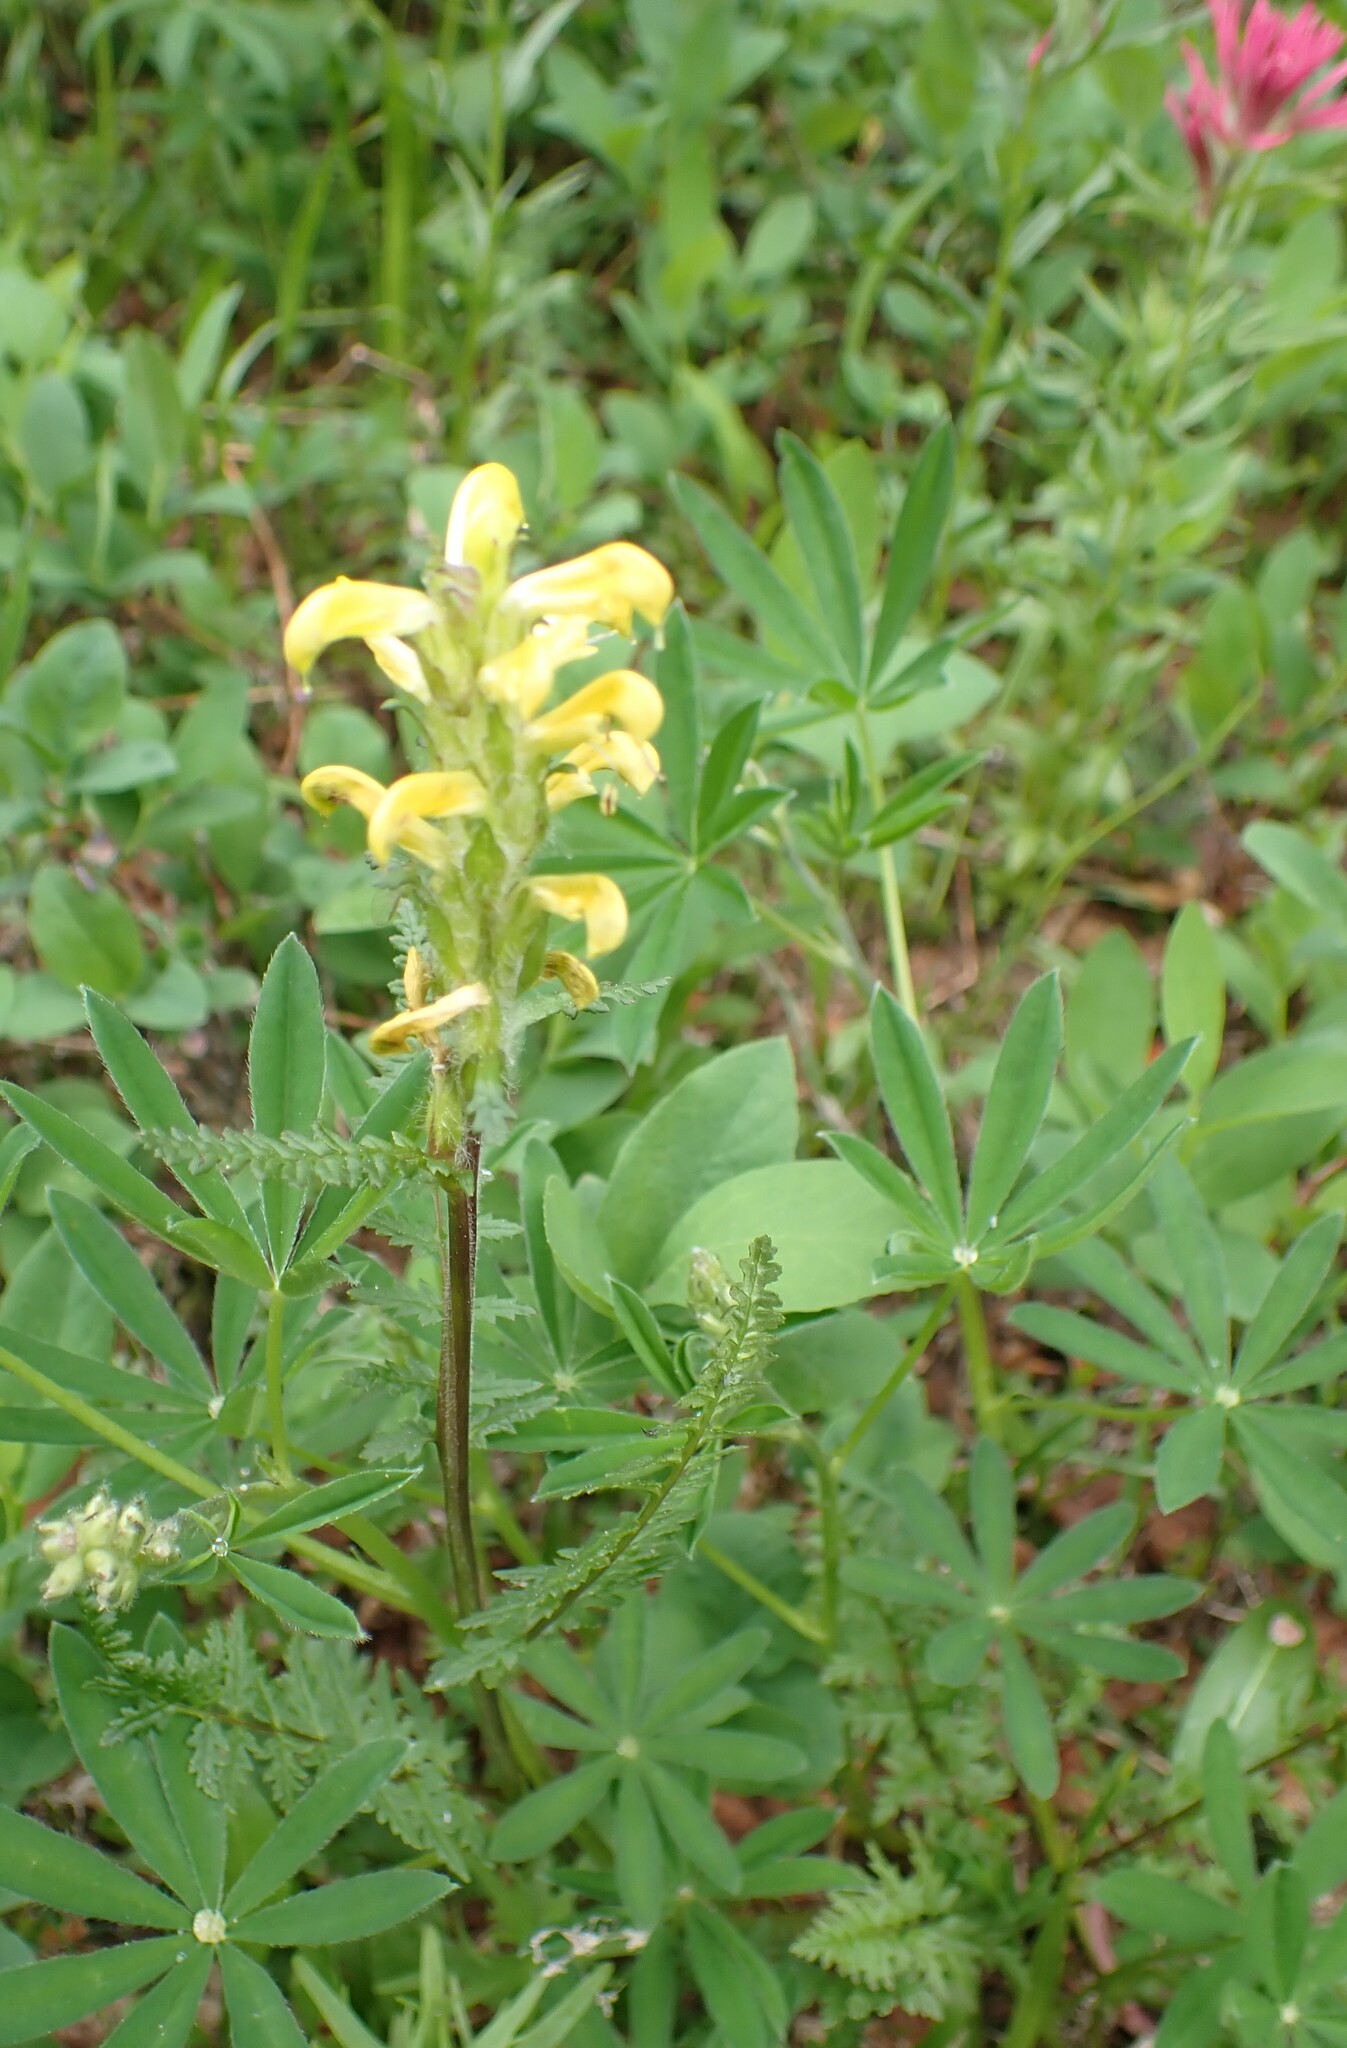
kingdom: Plantae
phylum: Tracheophyta
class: Magnoliopsida
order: Lamiales
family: Orobanchaceae
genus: Pedicularis
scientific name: Pedicularis rainierensis
